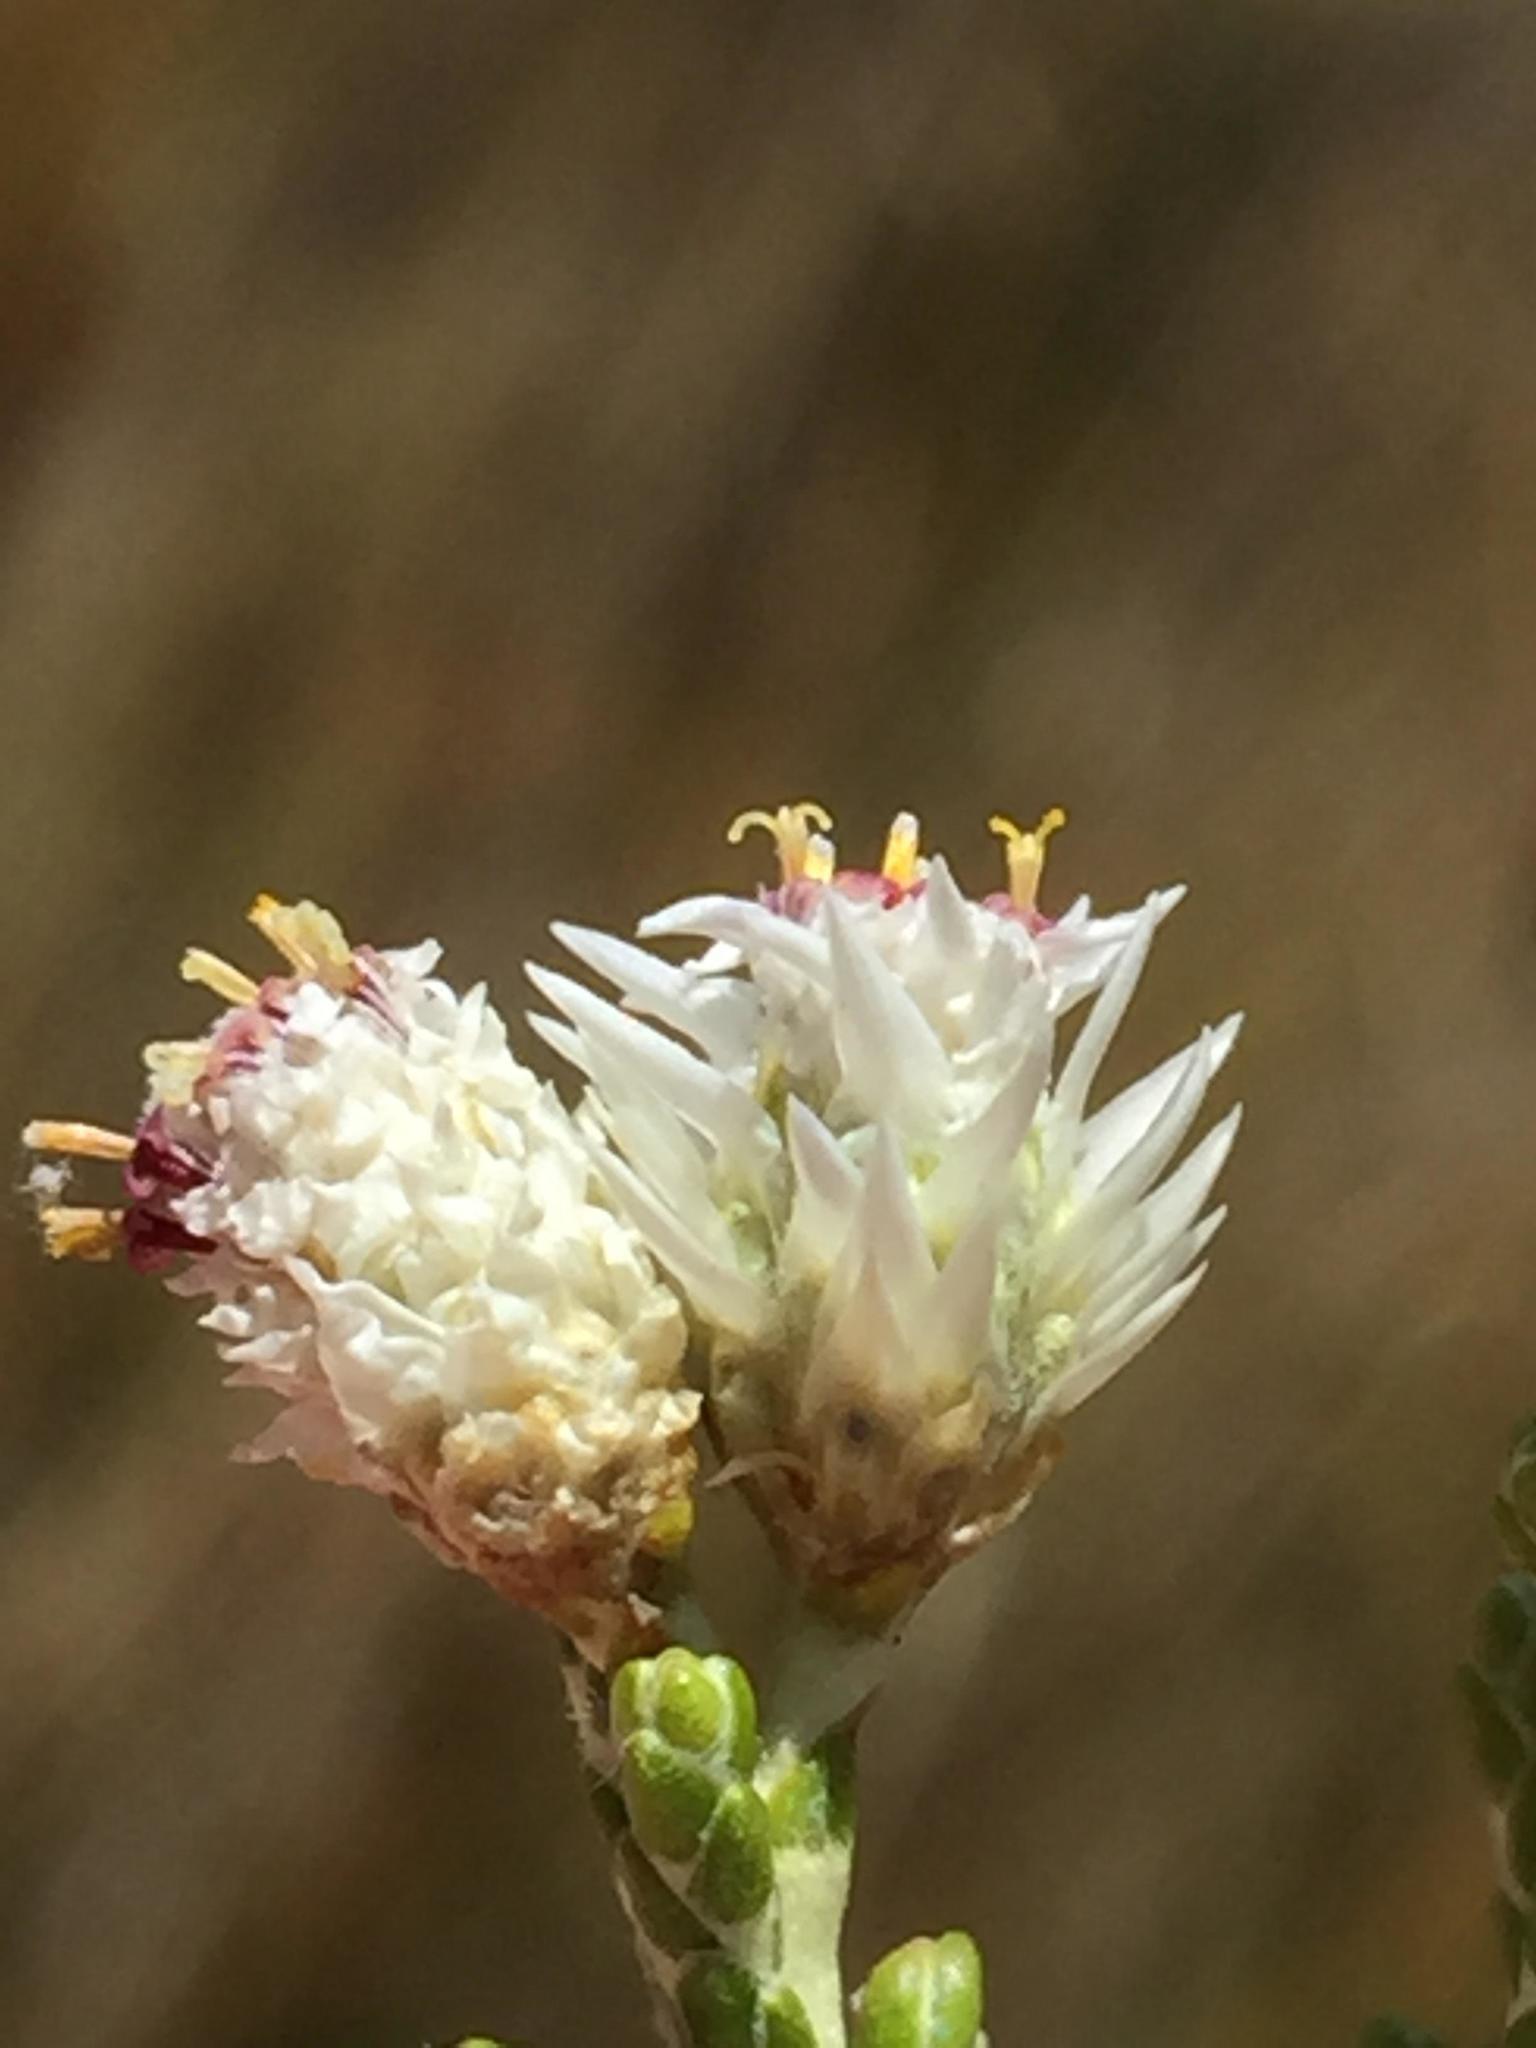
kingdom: Plantae
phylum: Tracheophyta
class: Magnoliopsida
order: Asterales
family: Asteraceae
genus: Dolichothrix
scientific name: Dolichothrix ericoides
